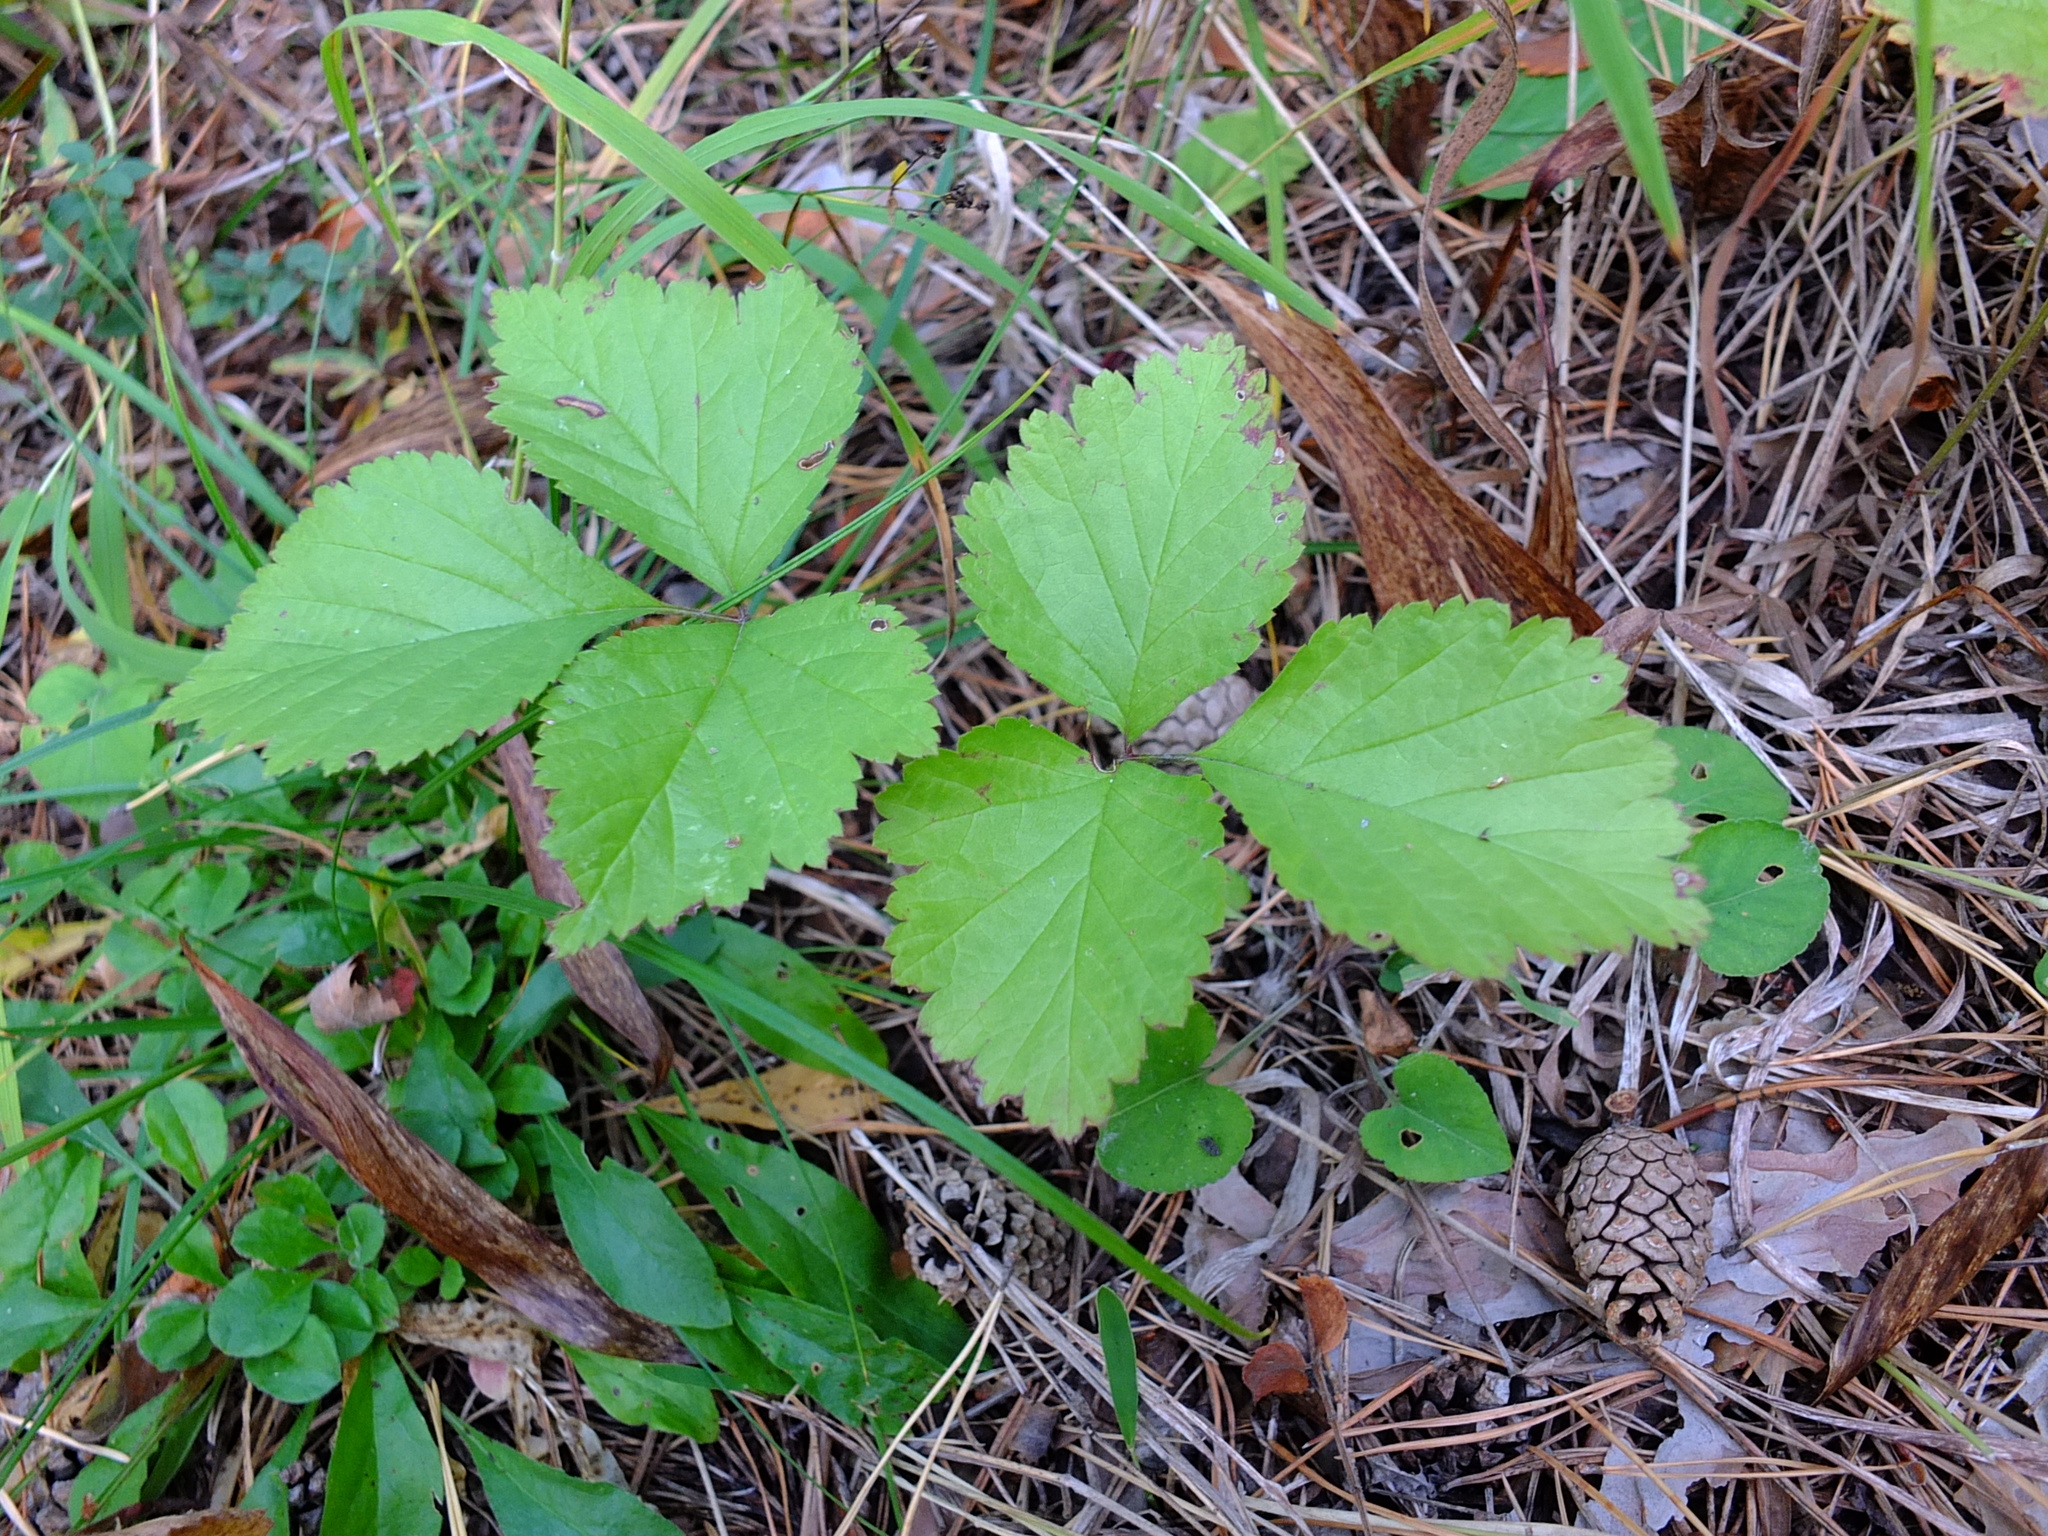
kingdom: Plantae
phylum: Tracheophyta
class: Magnoliopsida
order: Rosales
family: Rosaceae
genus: Rubus
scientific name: Rubus saxatilis
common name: Stone bramble
